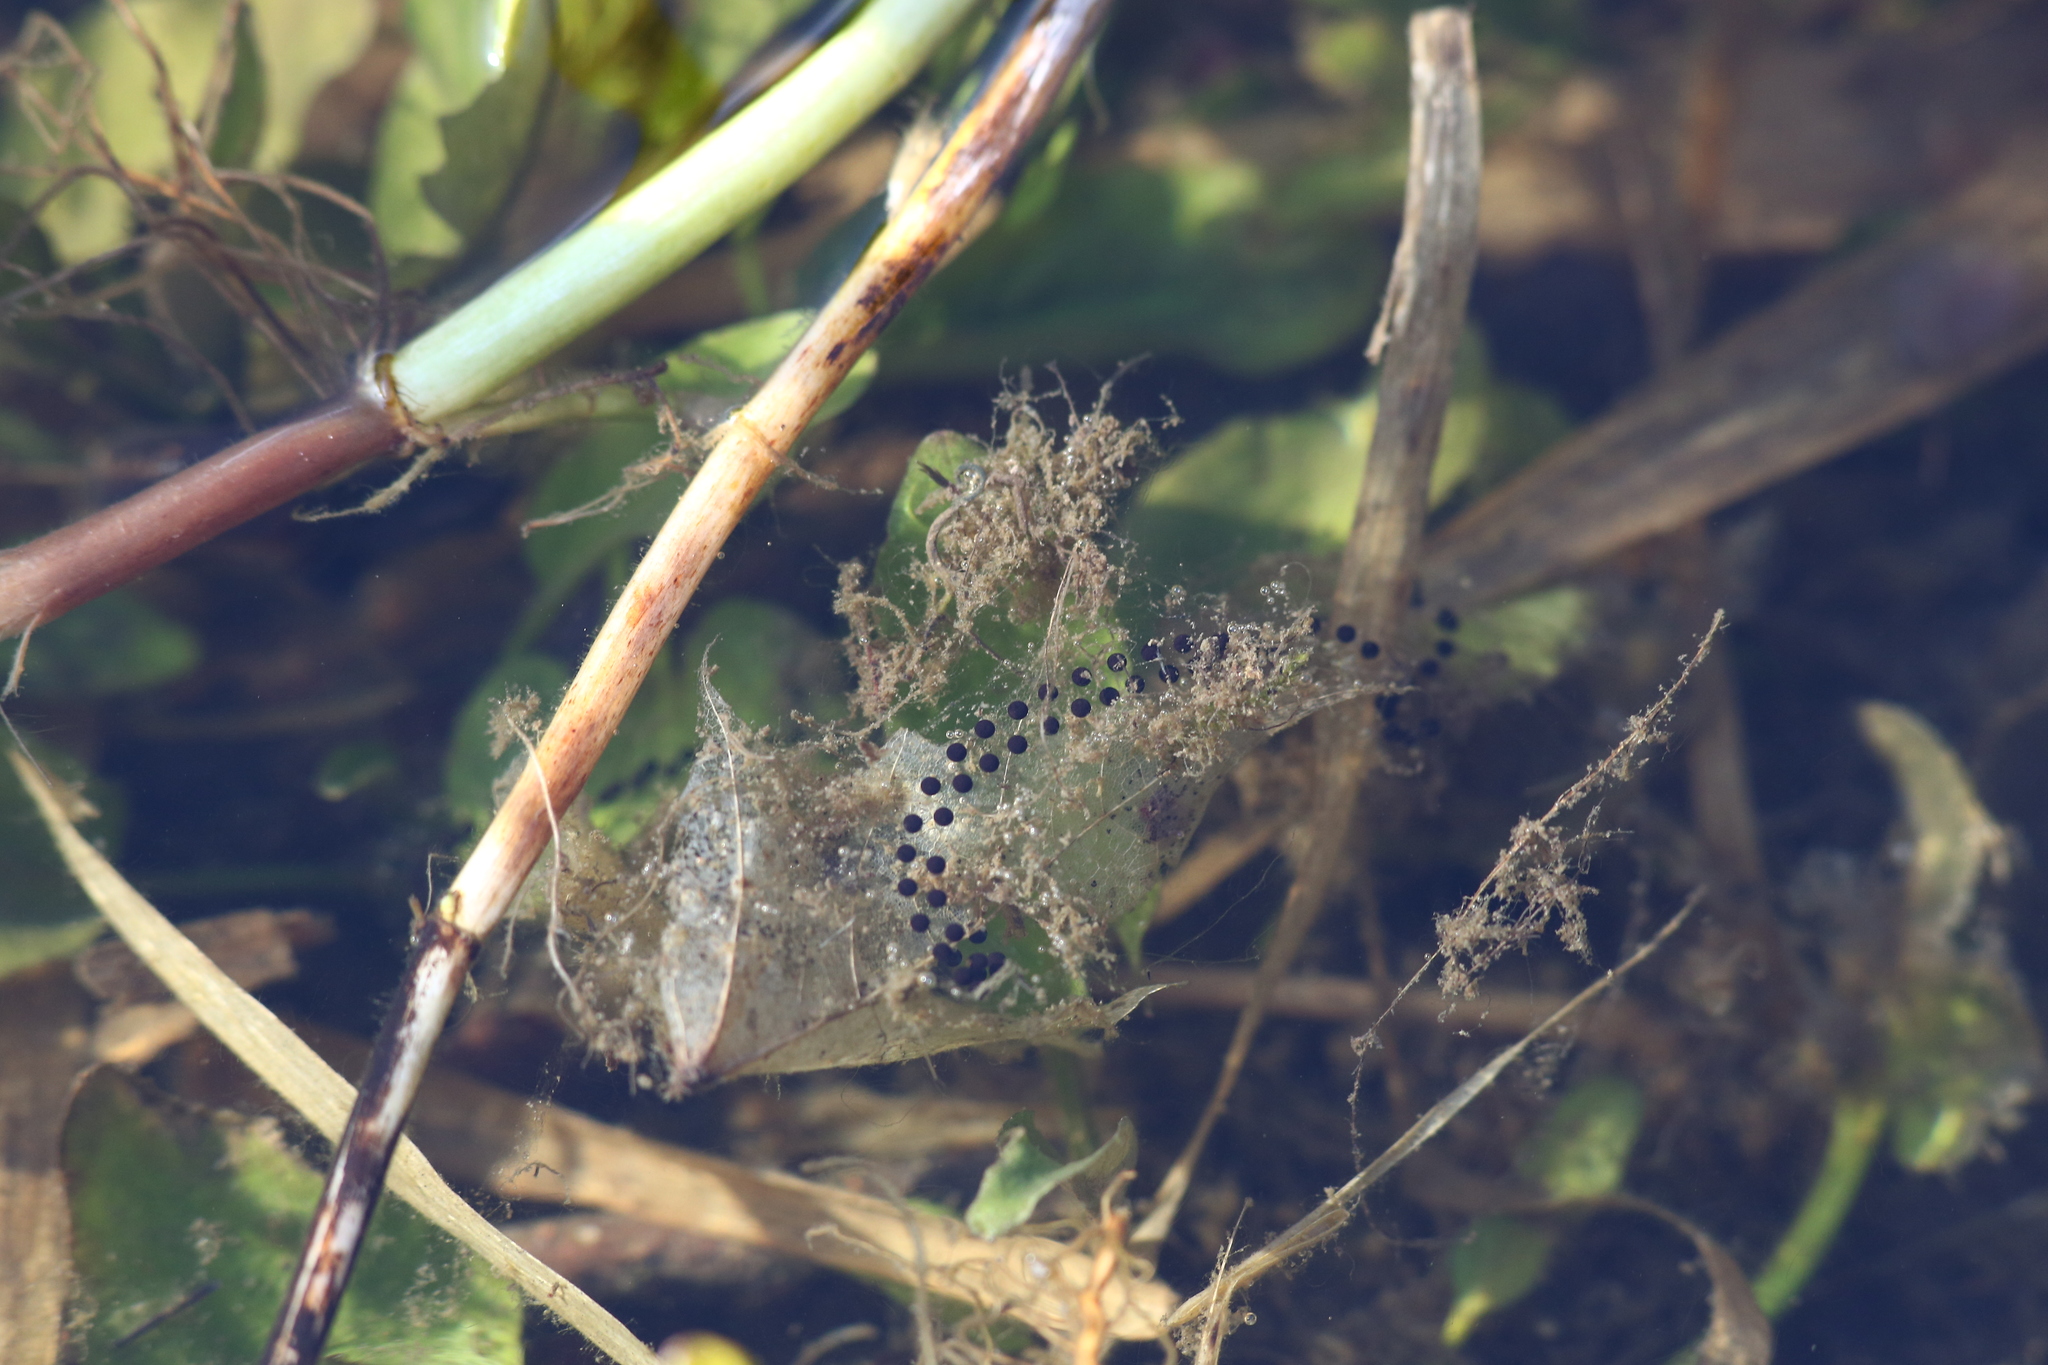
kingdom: Animalia
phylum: Chordata
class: Amphibia
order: Anura
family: Bufonidae
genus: Bufo
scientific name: Bufo bufo
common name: Common toad
